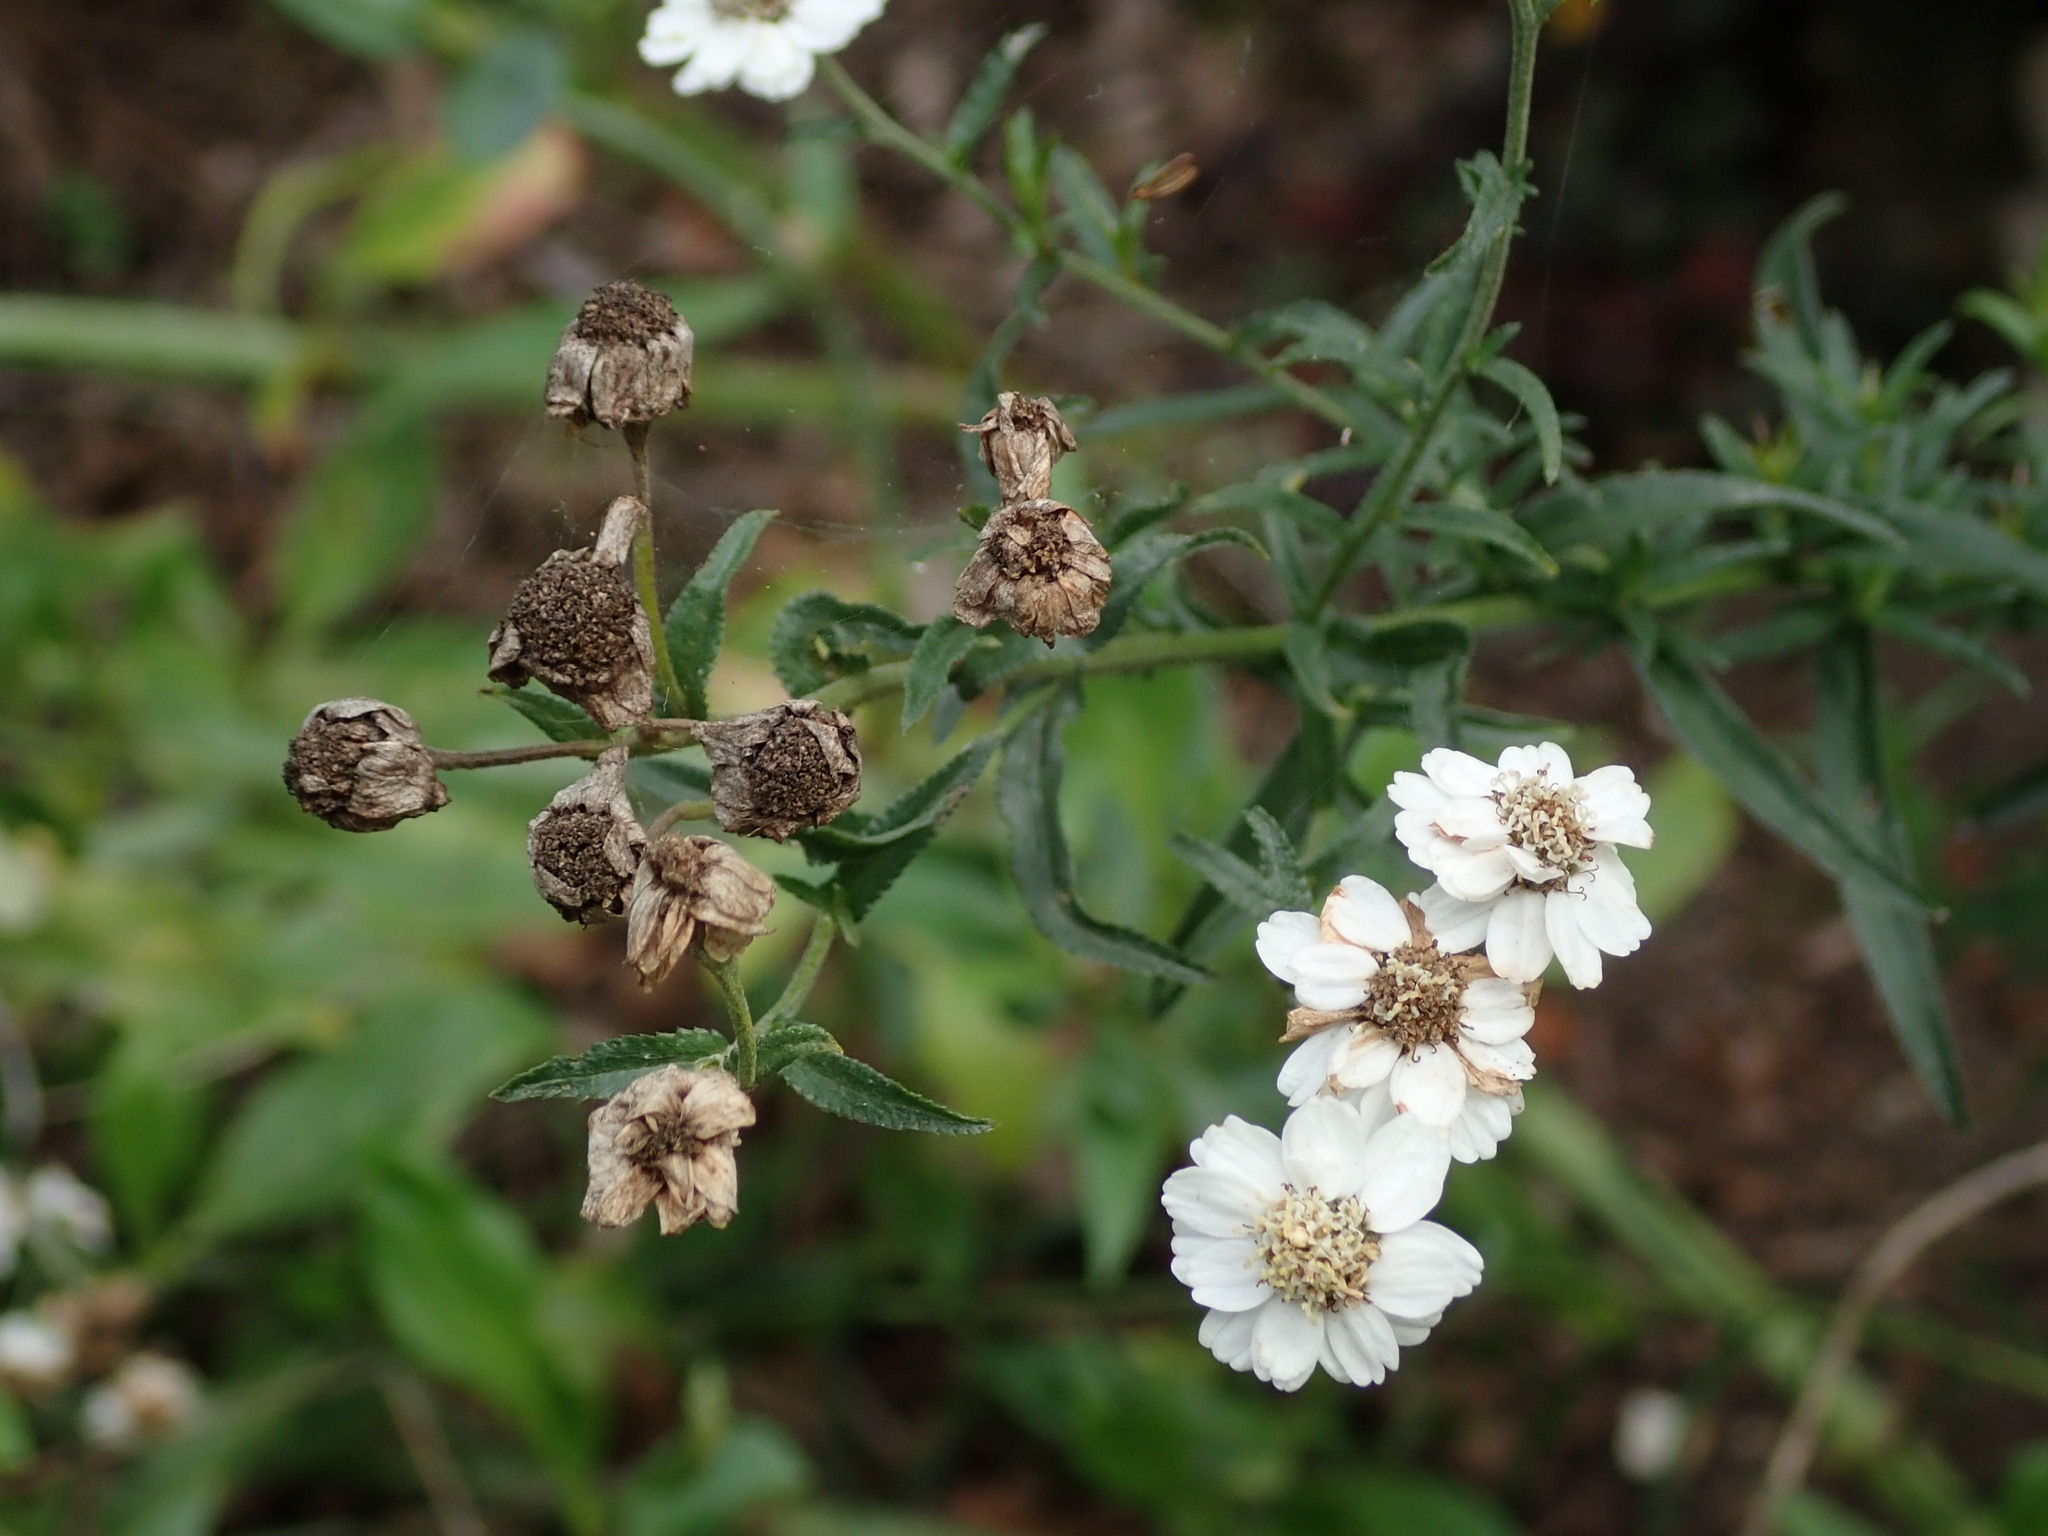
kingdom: Plantae
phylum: Tracheophyta
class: Magnoliopsida
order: Asterales
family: Asteraceae
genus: Achillea
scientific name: Achillea ptarmica
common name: Sneezeweed
